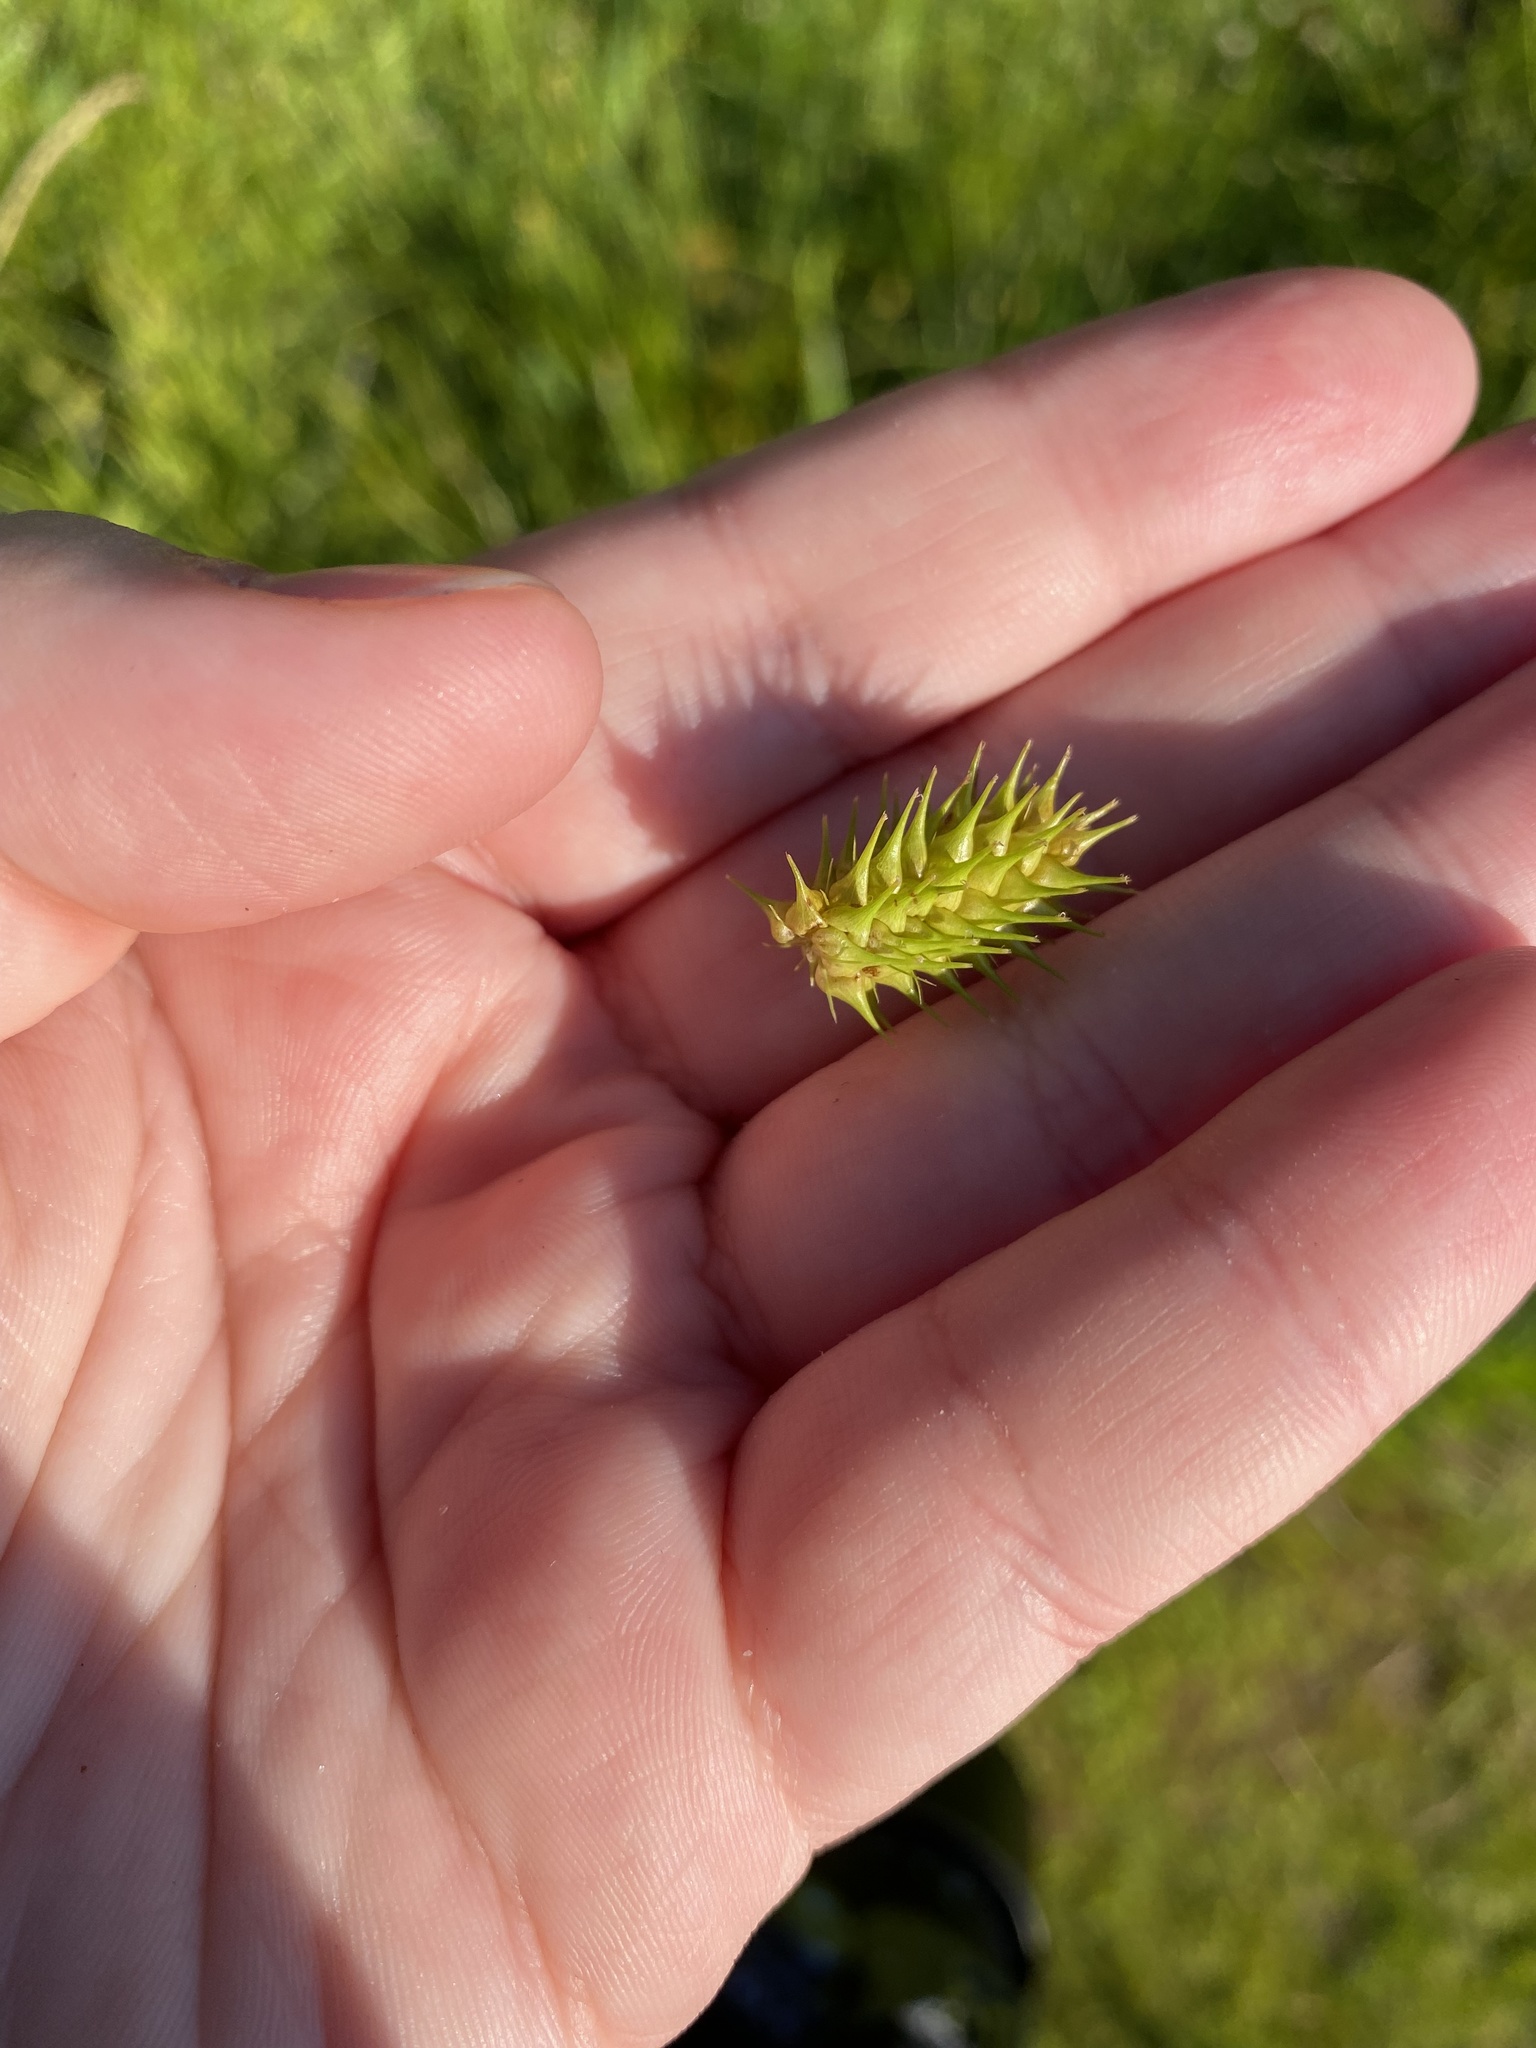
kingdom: Plantae
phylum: Tracheophyta
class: Liliopsida
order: Poales
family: Cyperaceae
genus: Carex
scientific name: Carex lurida
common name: Sallow sedge
